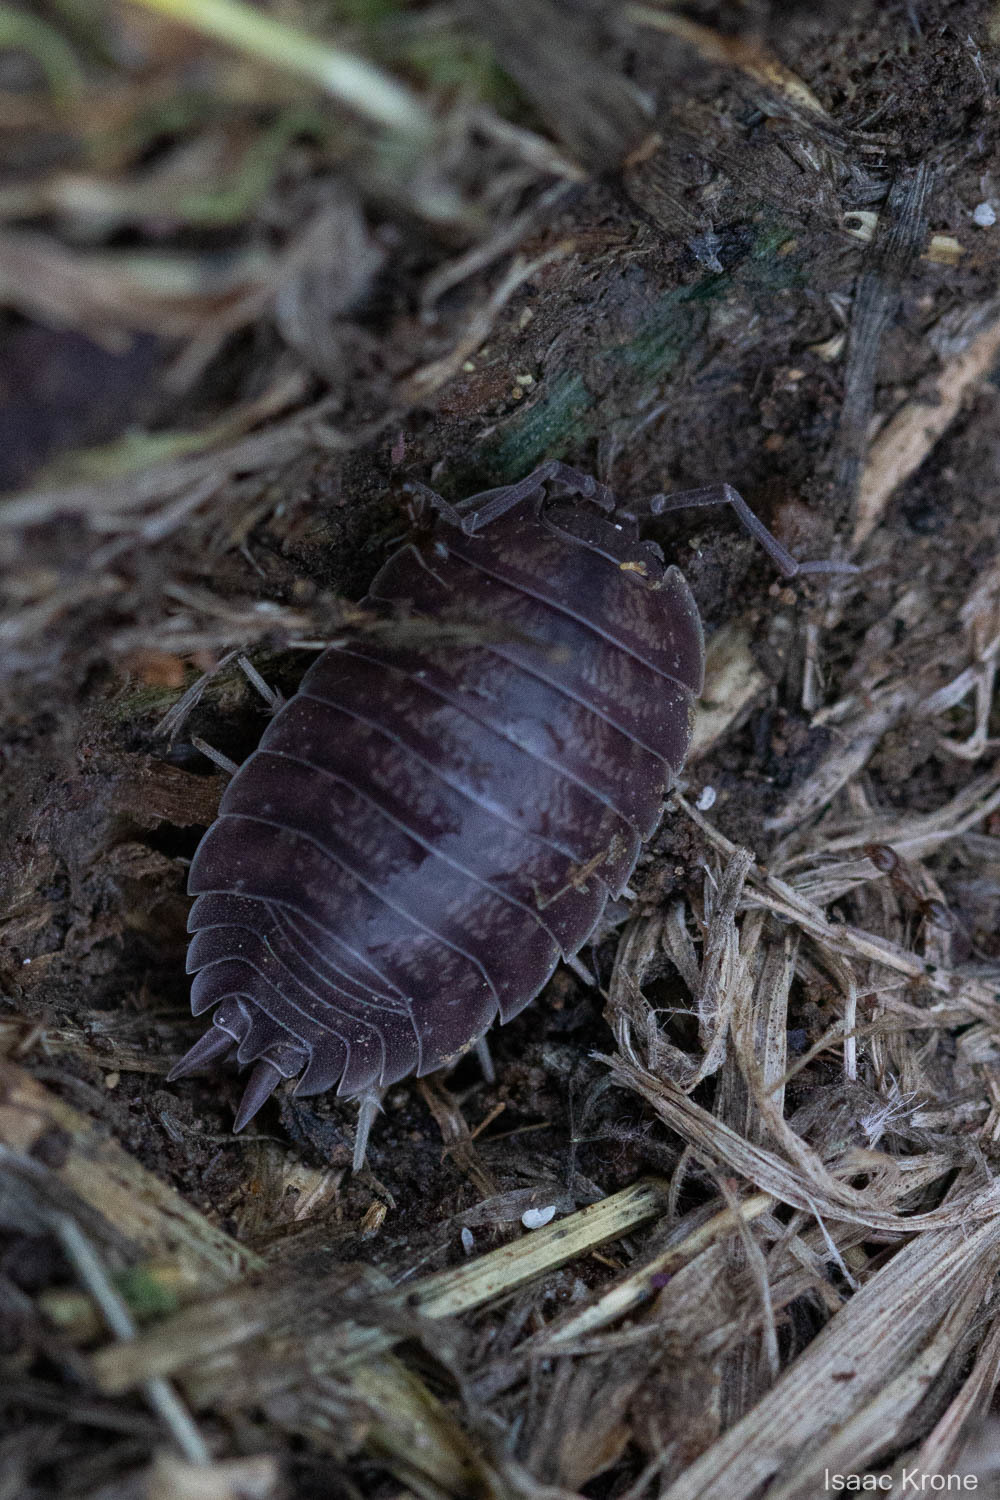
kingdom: Animalia
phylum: Arthropoda
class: Malacostraca
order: Isopoda
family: Porcellionidae
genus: Porcellio
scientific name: Porcellio laevis
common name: Swift woodlouse
